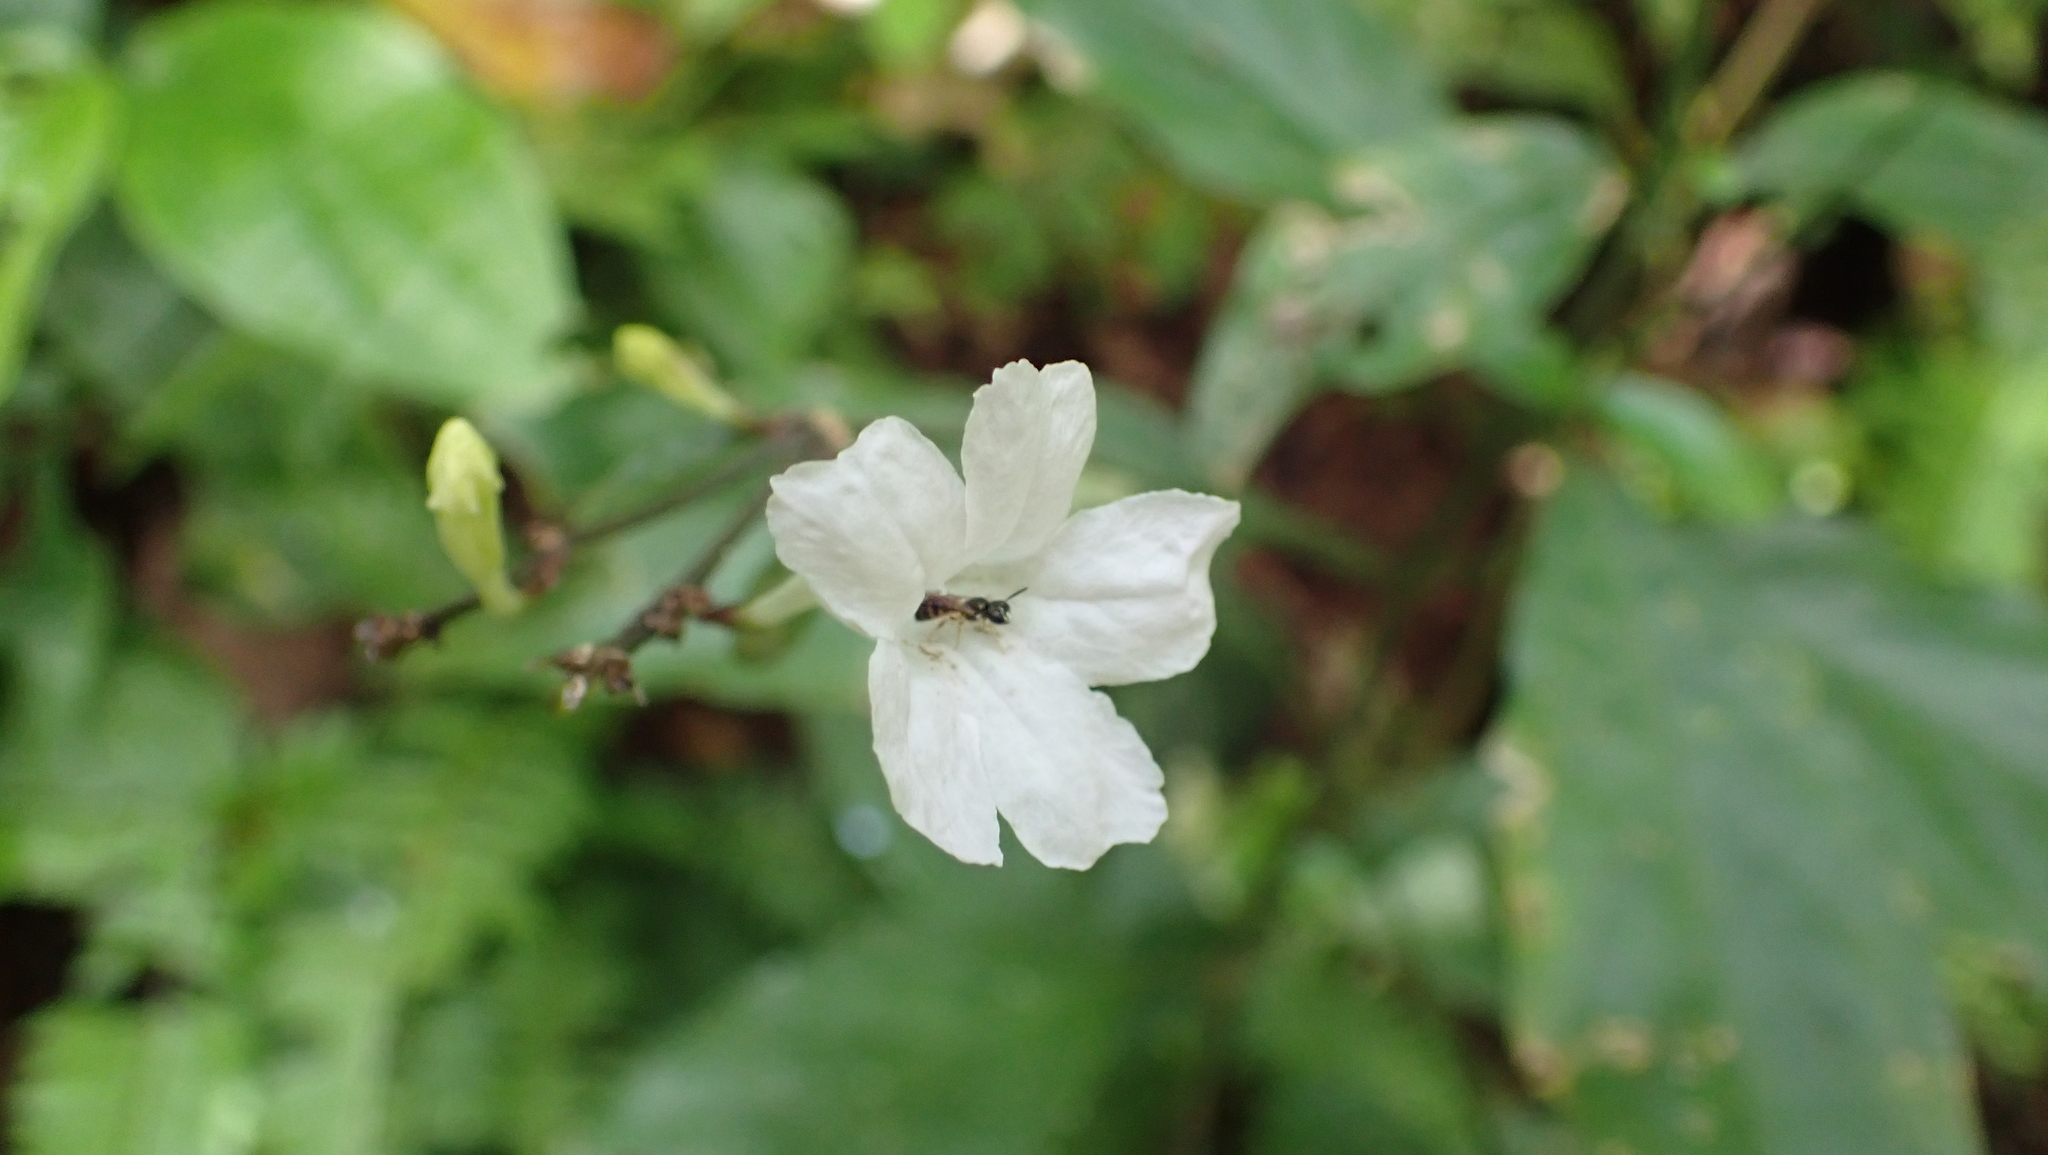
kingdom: Animalia
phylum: Arthropoda
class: Insecta
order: Hymenoptera
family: Apidae
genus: Ceratinula
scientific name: Ceratinula
